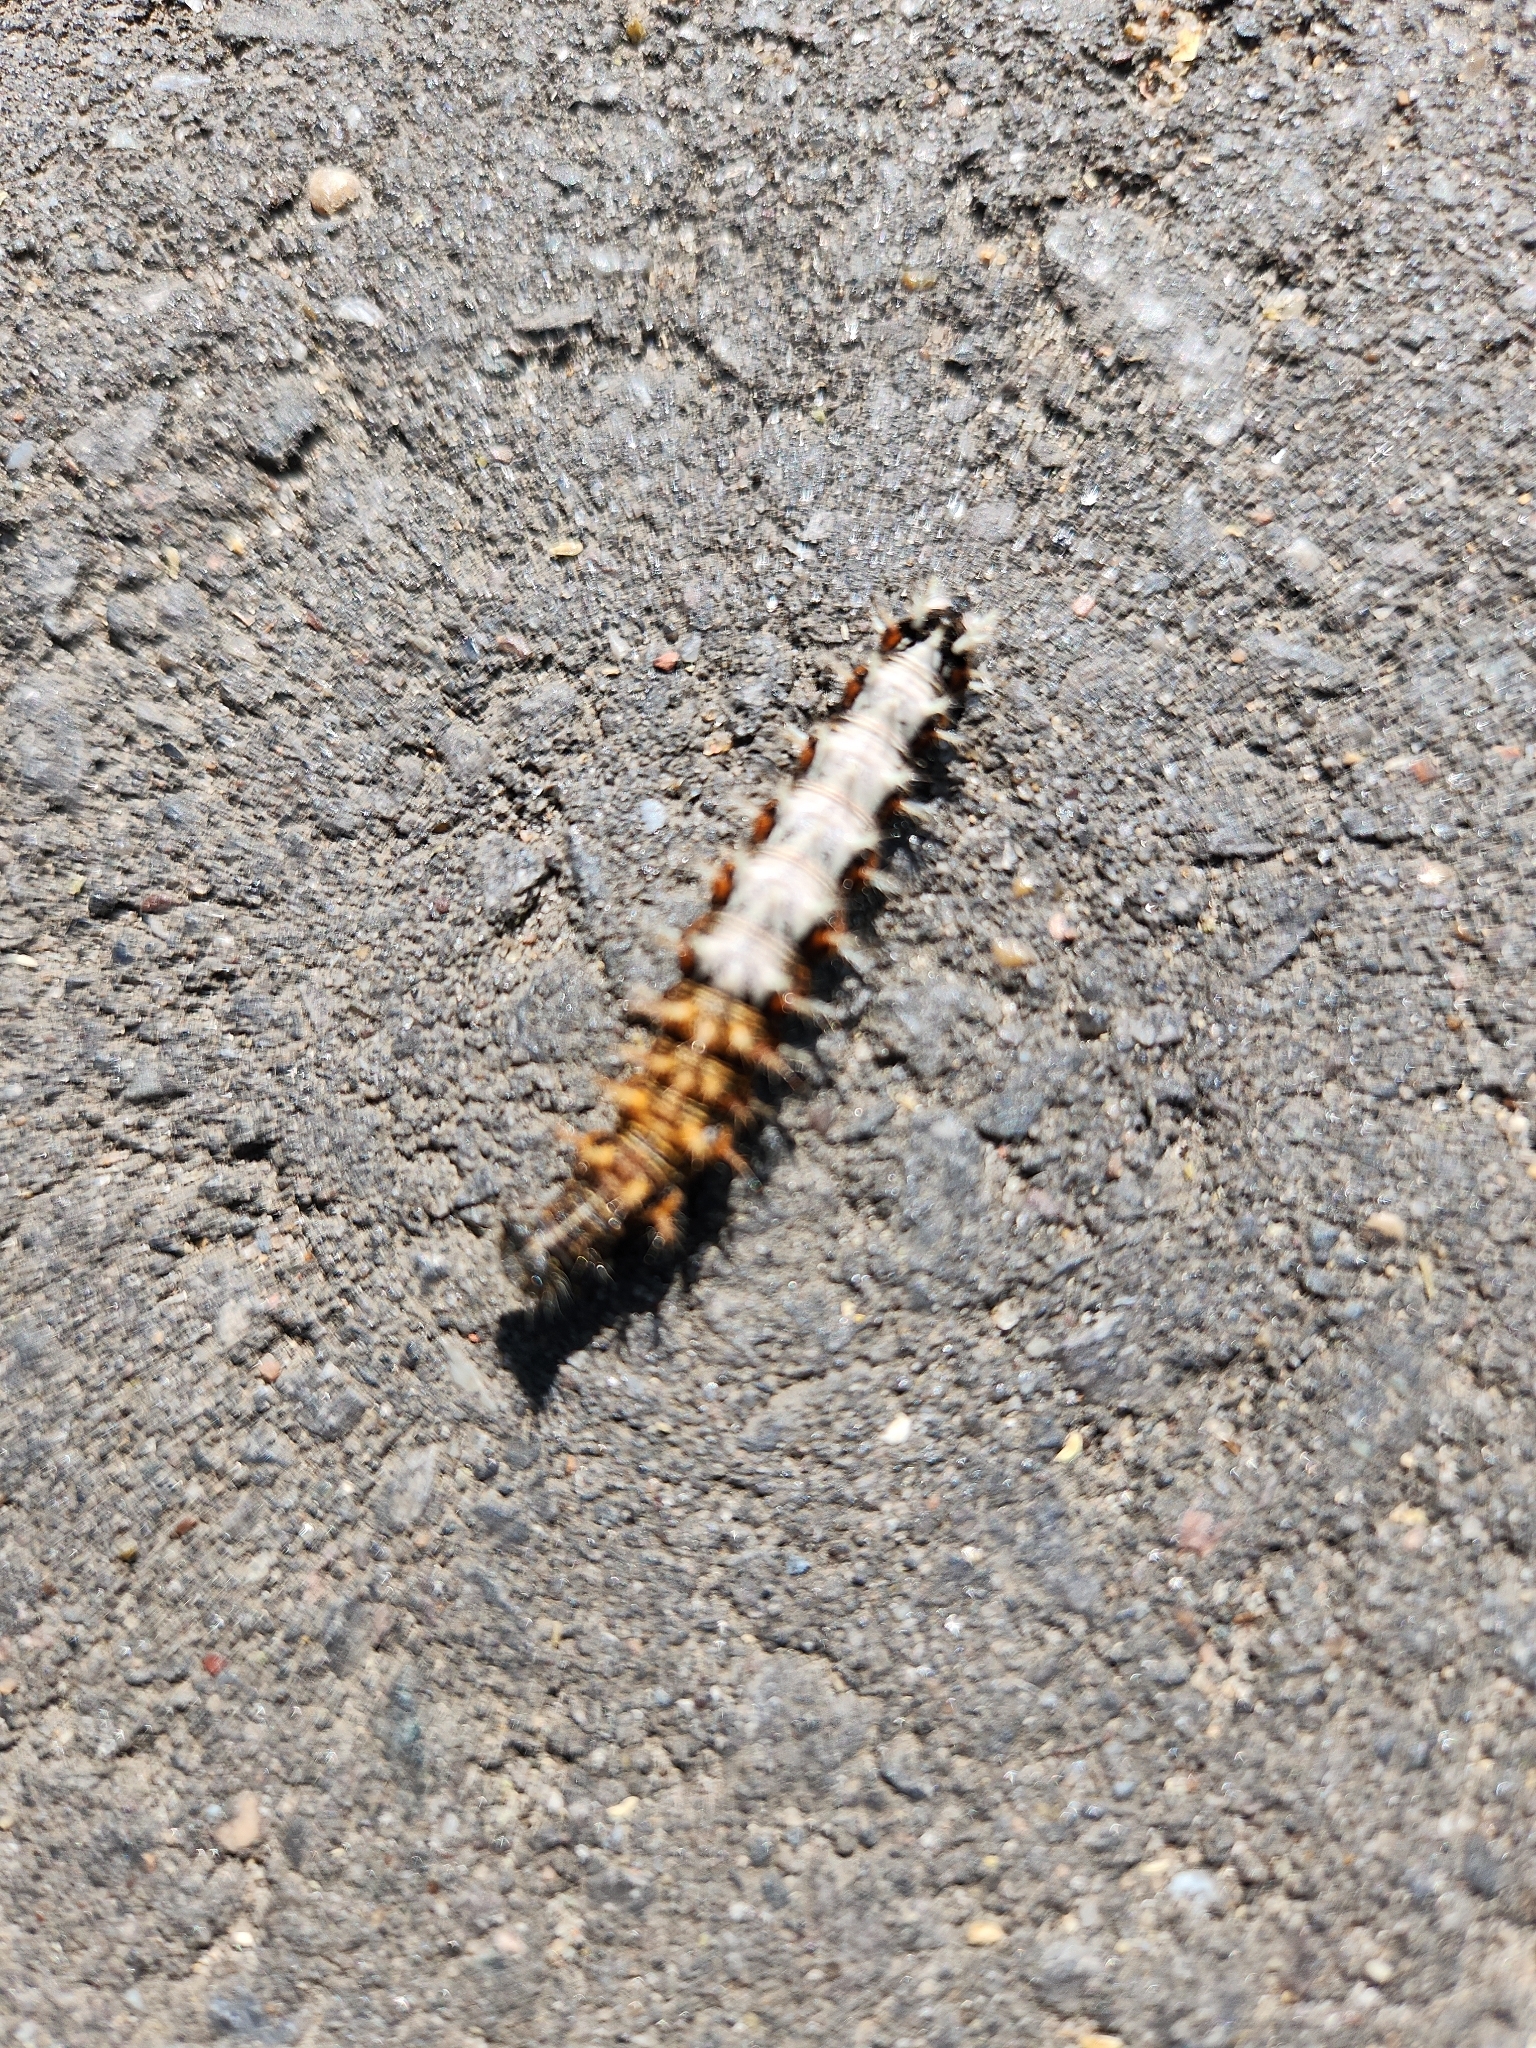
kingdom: Animalia
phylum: Arthropoda
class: Insecta
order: Lepidoptera
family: Nymphalidae
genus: Polygonia
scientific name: Polygonia c-album
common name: Comma
